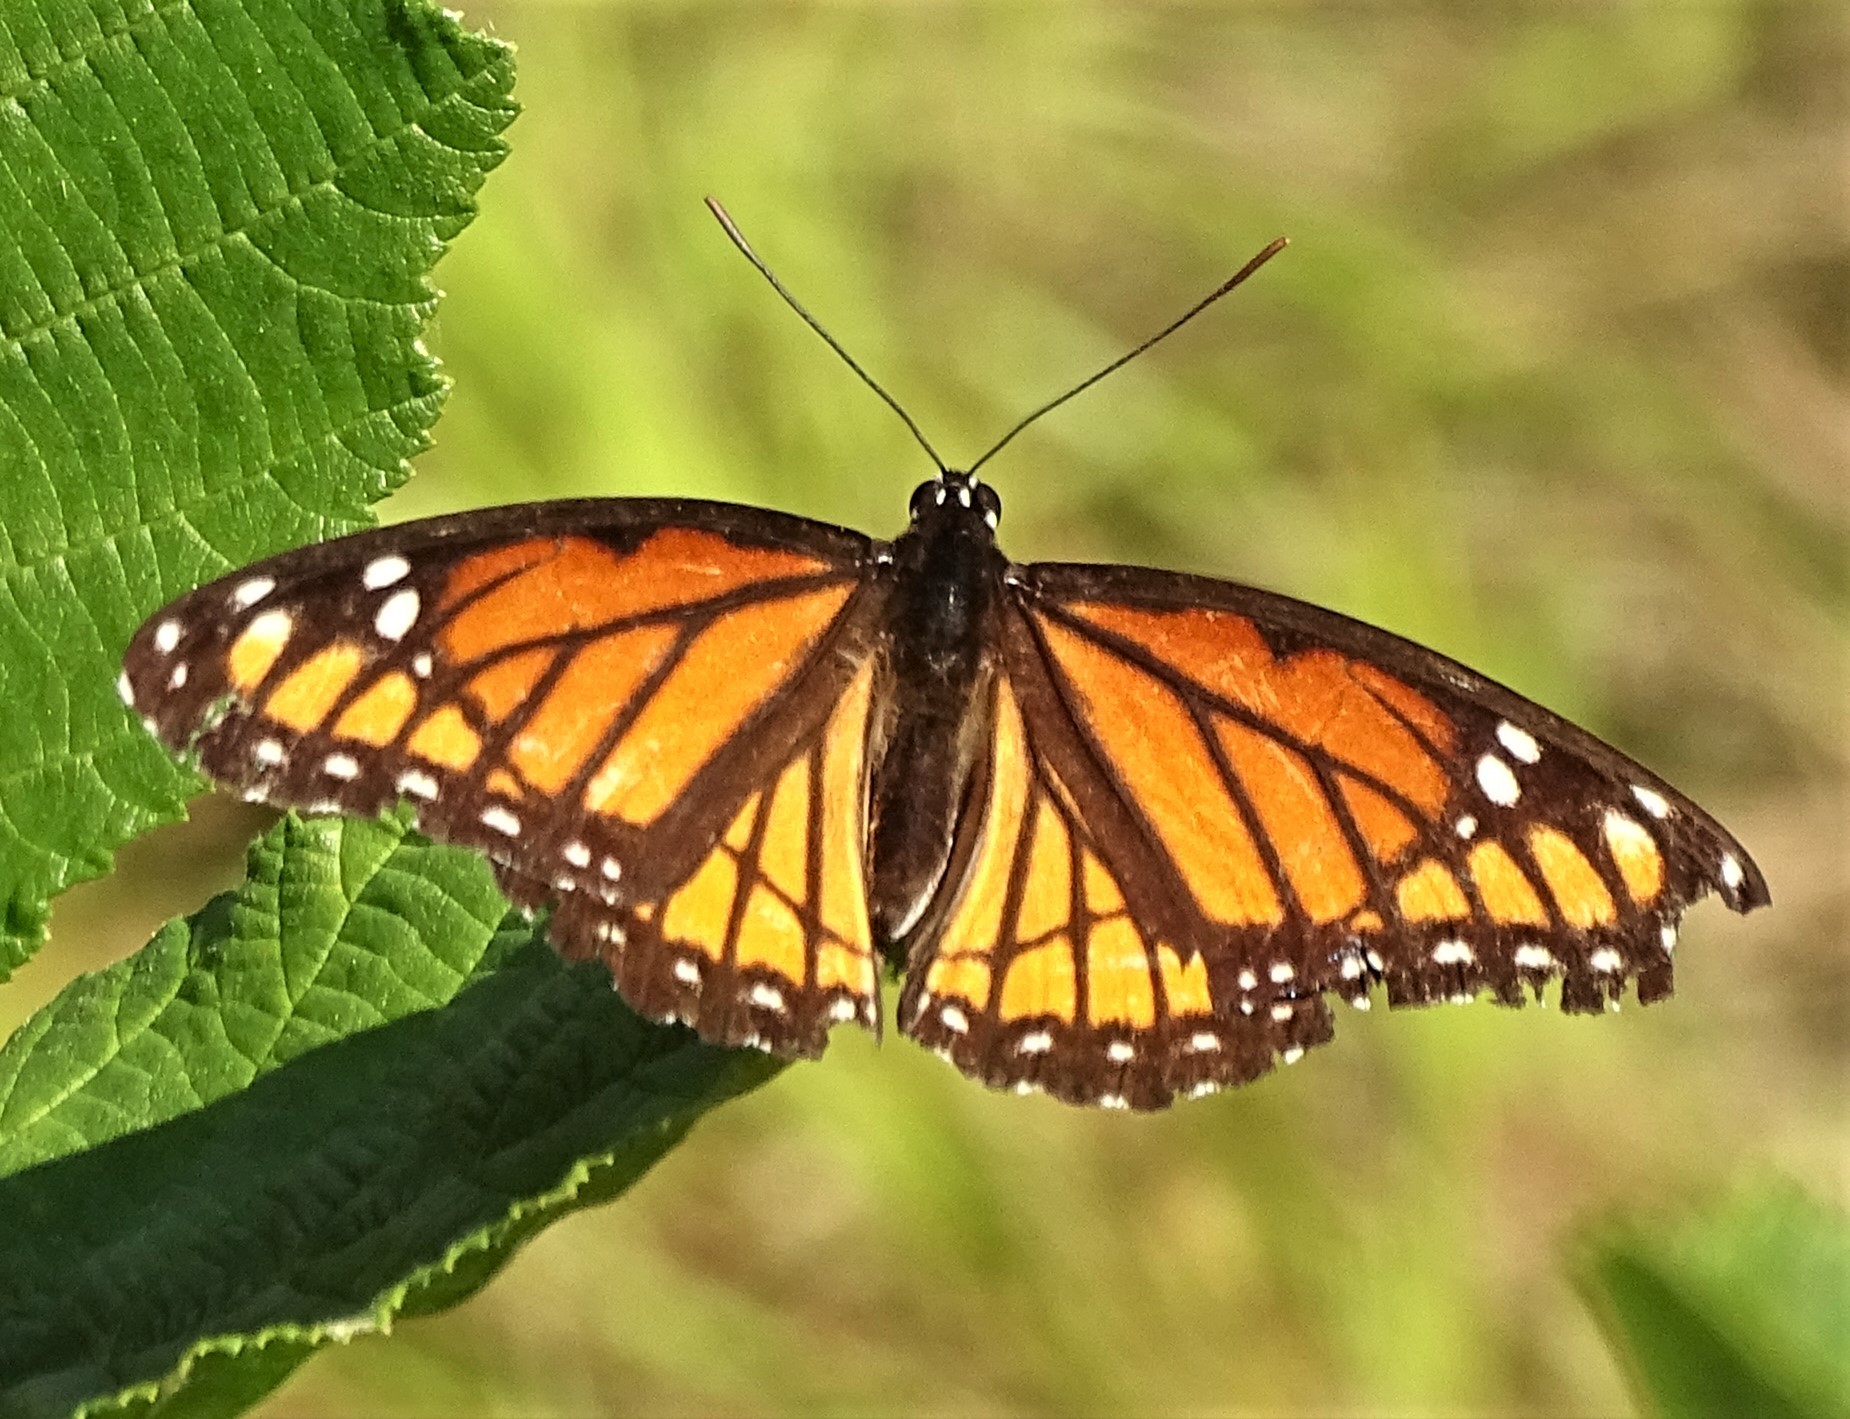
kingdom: Animalia
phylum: Arthropoda
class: Insecta
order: Lepidoptera
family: Nymphalidae
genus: Limenitis
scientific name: Limenitis archippus
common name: Viceroy
